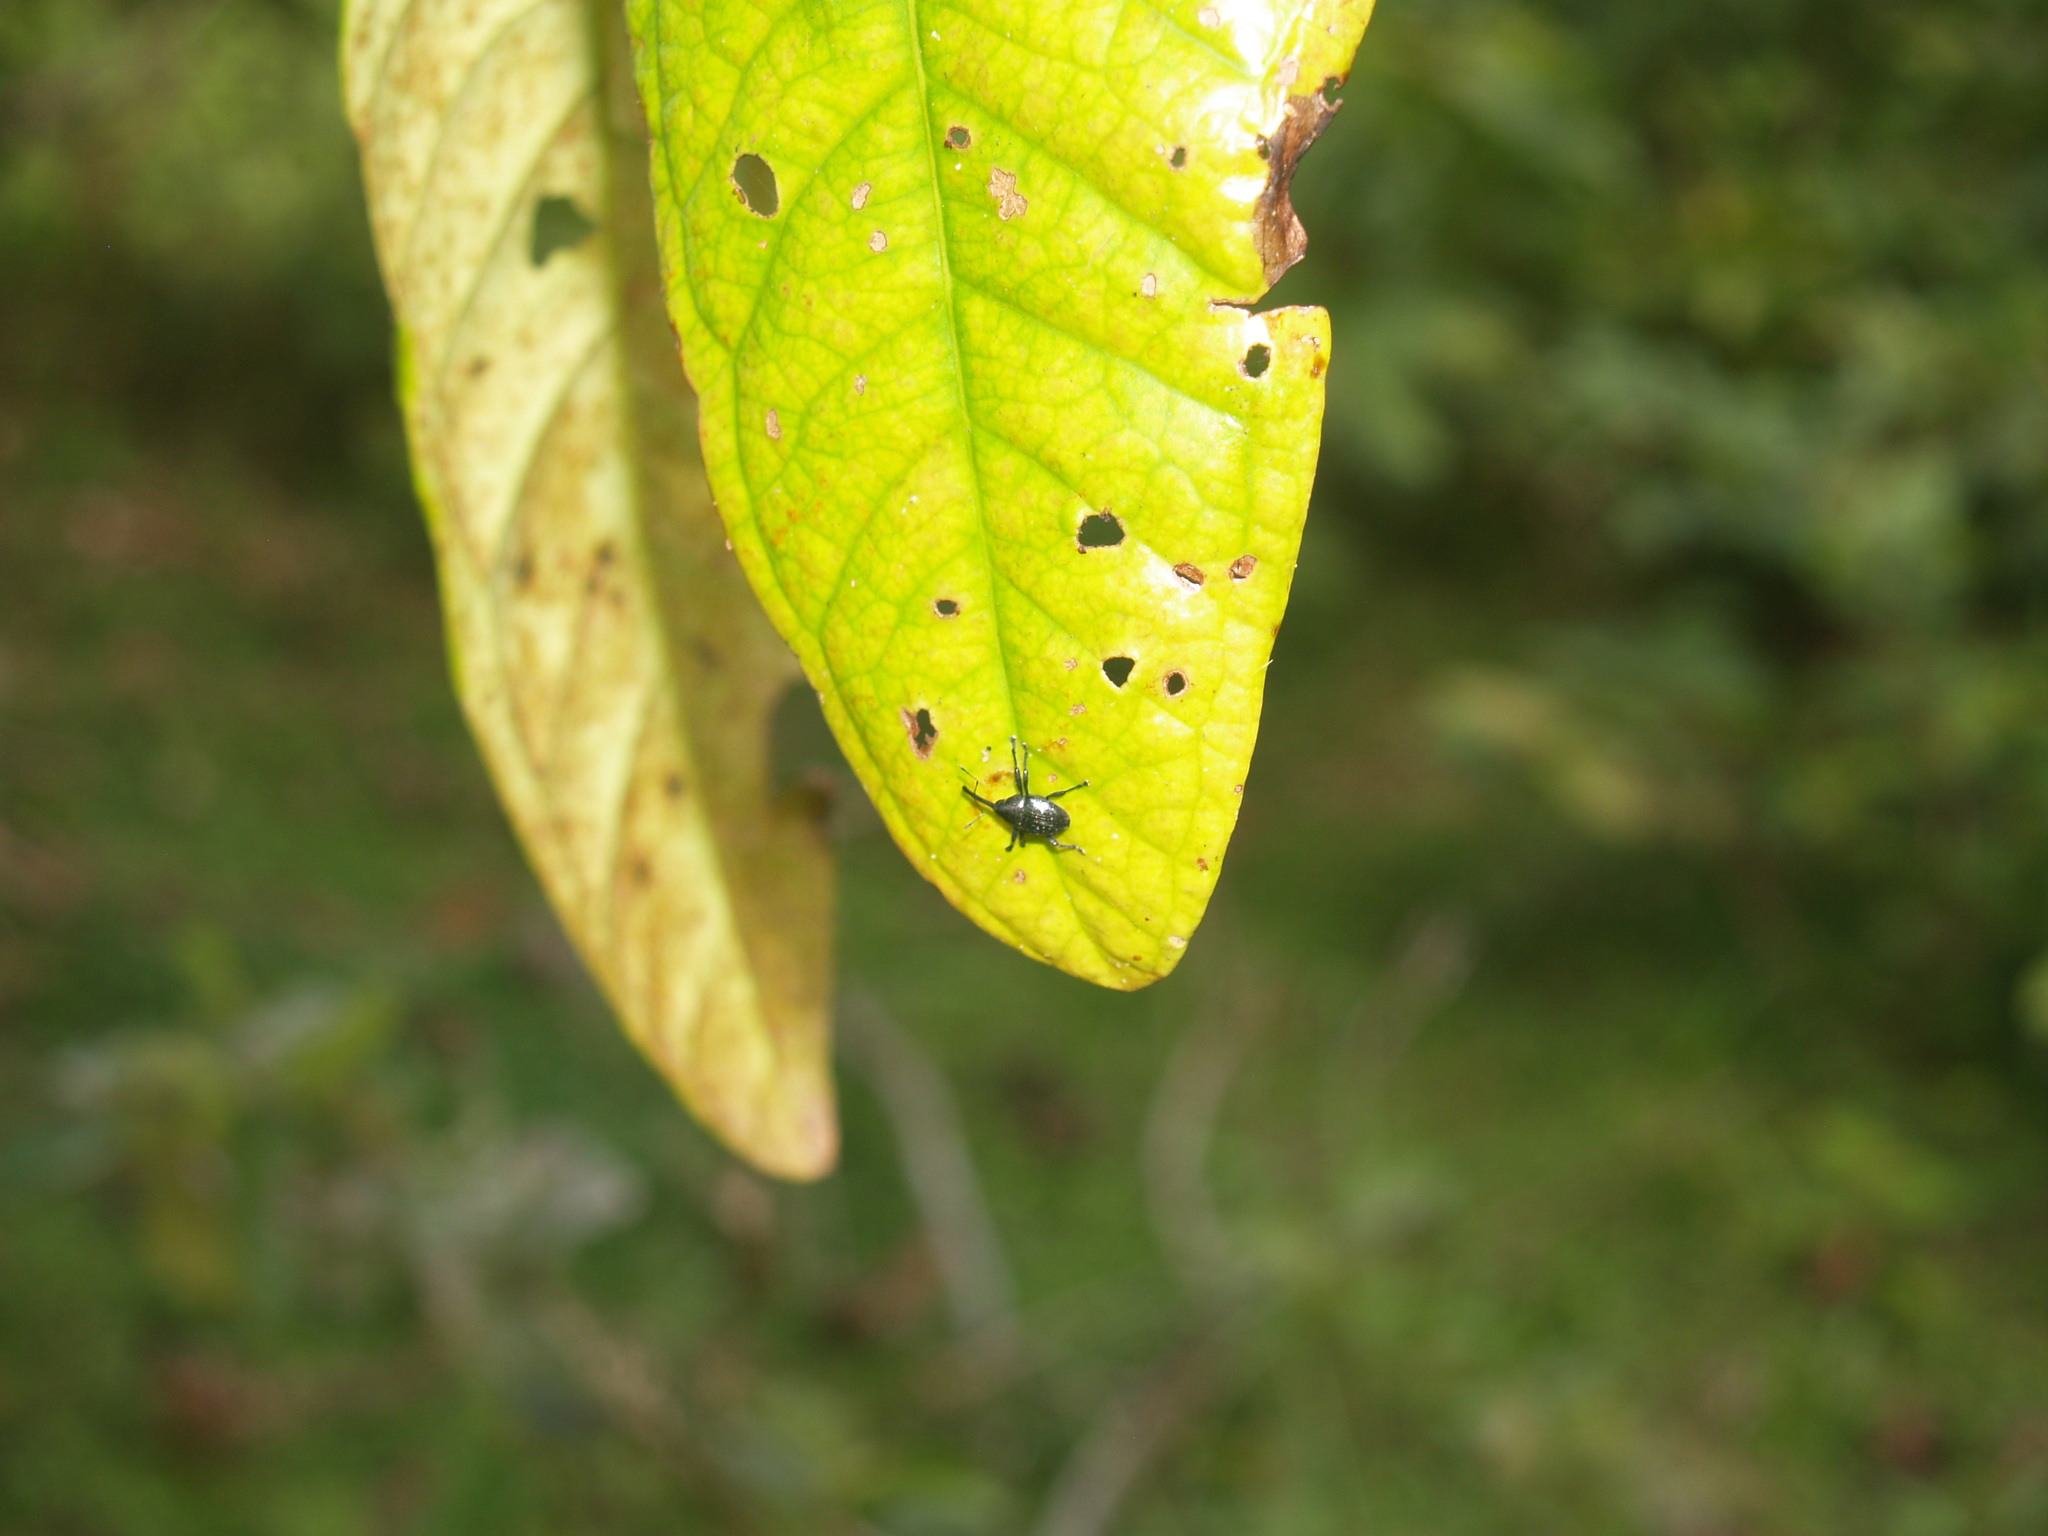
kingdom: Animalia
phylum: Arthropoda
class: Insecta
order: Coleoptera
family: Curculionidae
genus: Diorycaulus
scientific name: Diorycaulus punctatellus
